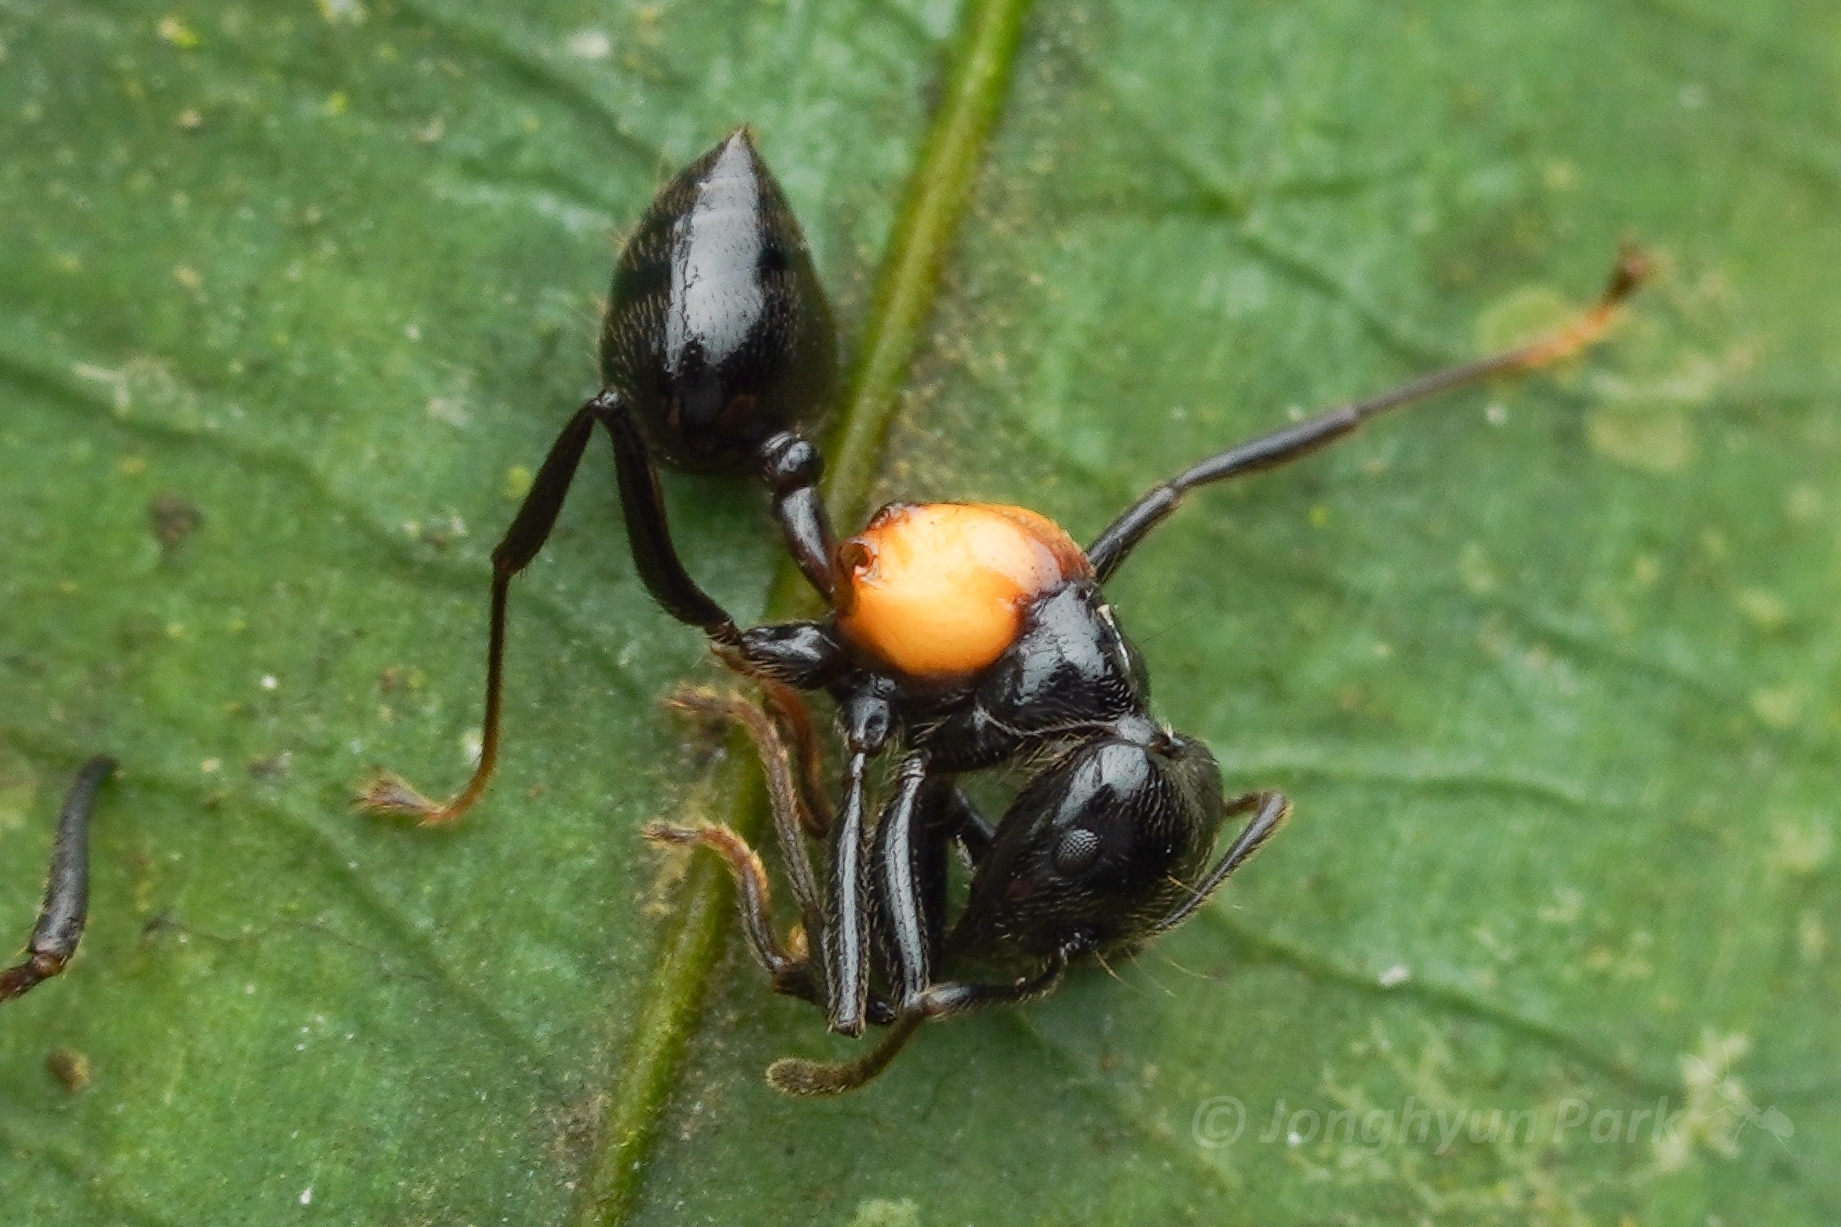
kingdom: Animalia
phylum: Arthropoda
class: Insecta
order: Hymenoptera
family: Formicidae
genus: Crematogaster
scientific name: Crematogaster inflata
